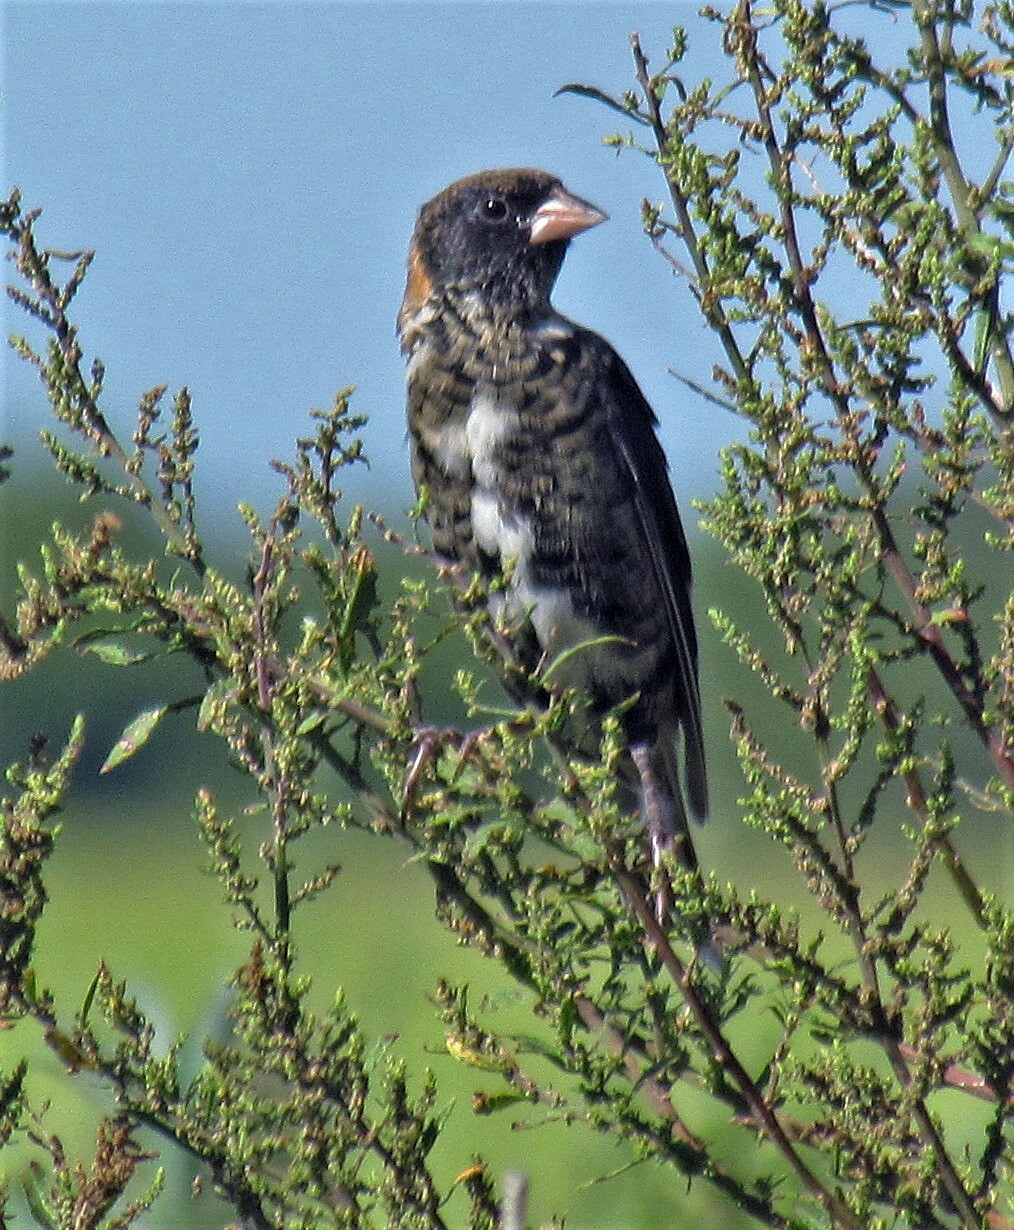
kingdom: Animalia
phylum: Chordata
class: Aves
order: Passeriformes
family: Icteridae
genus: Dolichonyx
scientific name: Dolichonyx oryzivorus
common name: Bobolink
